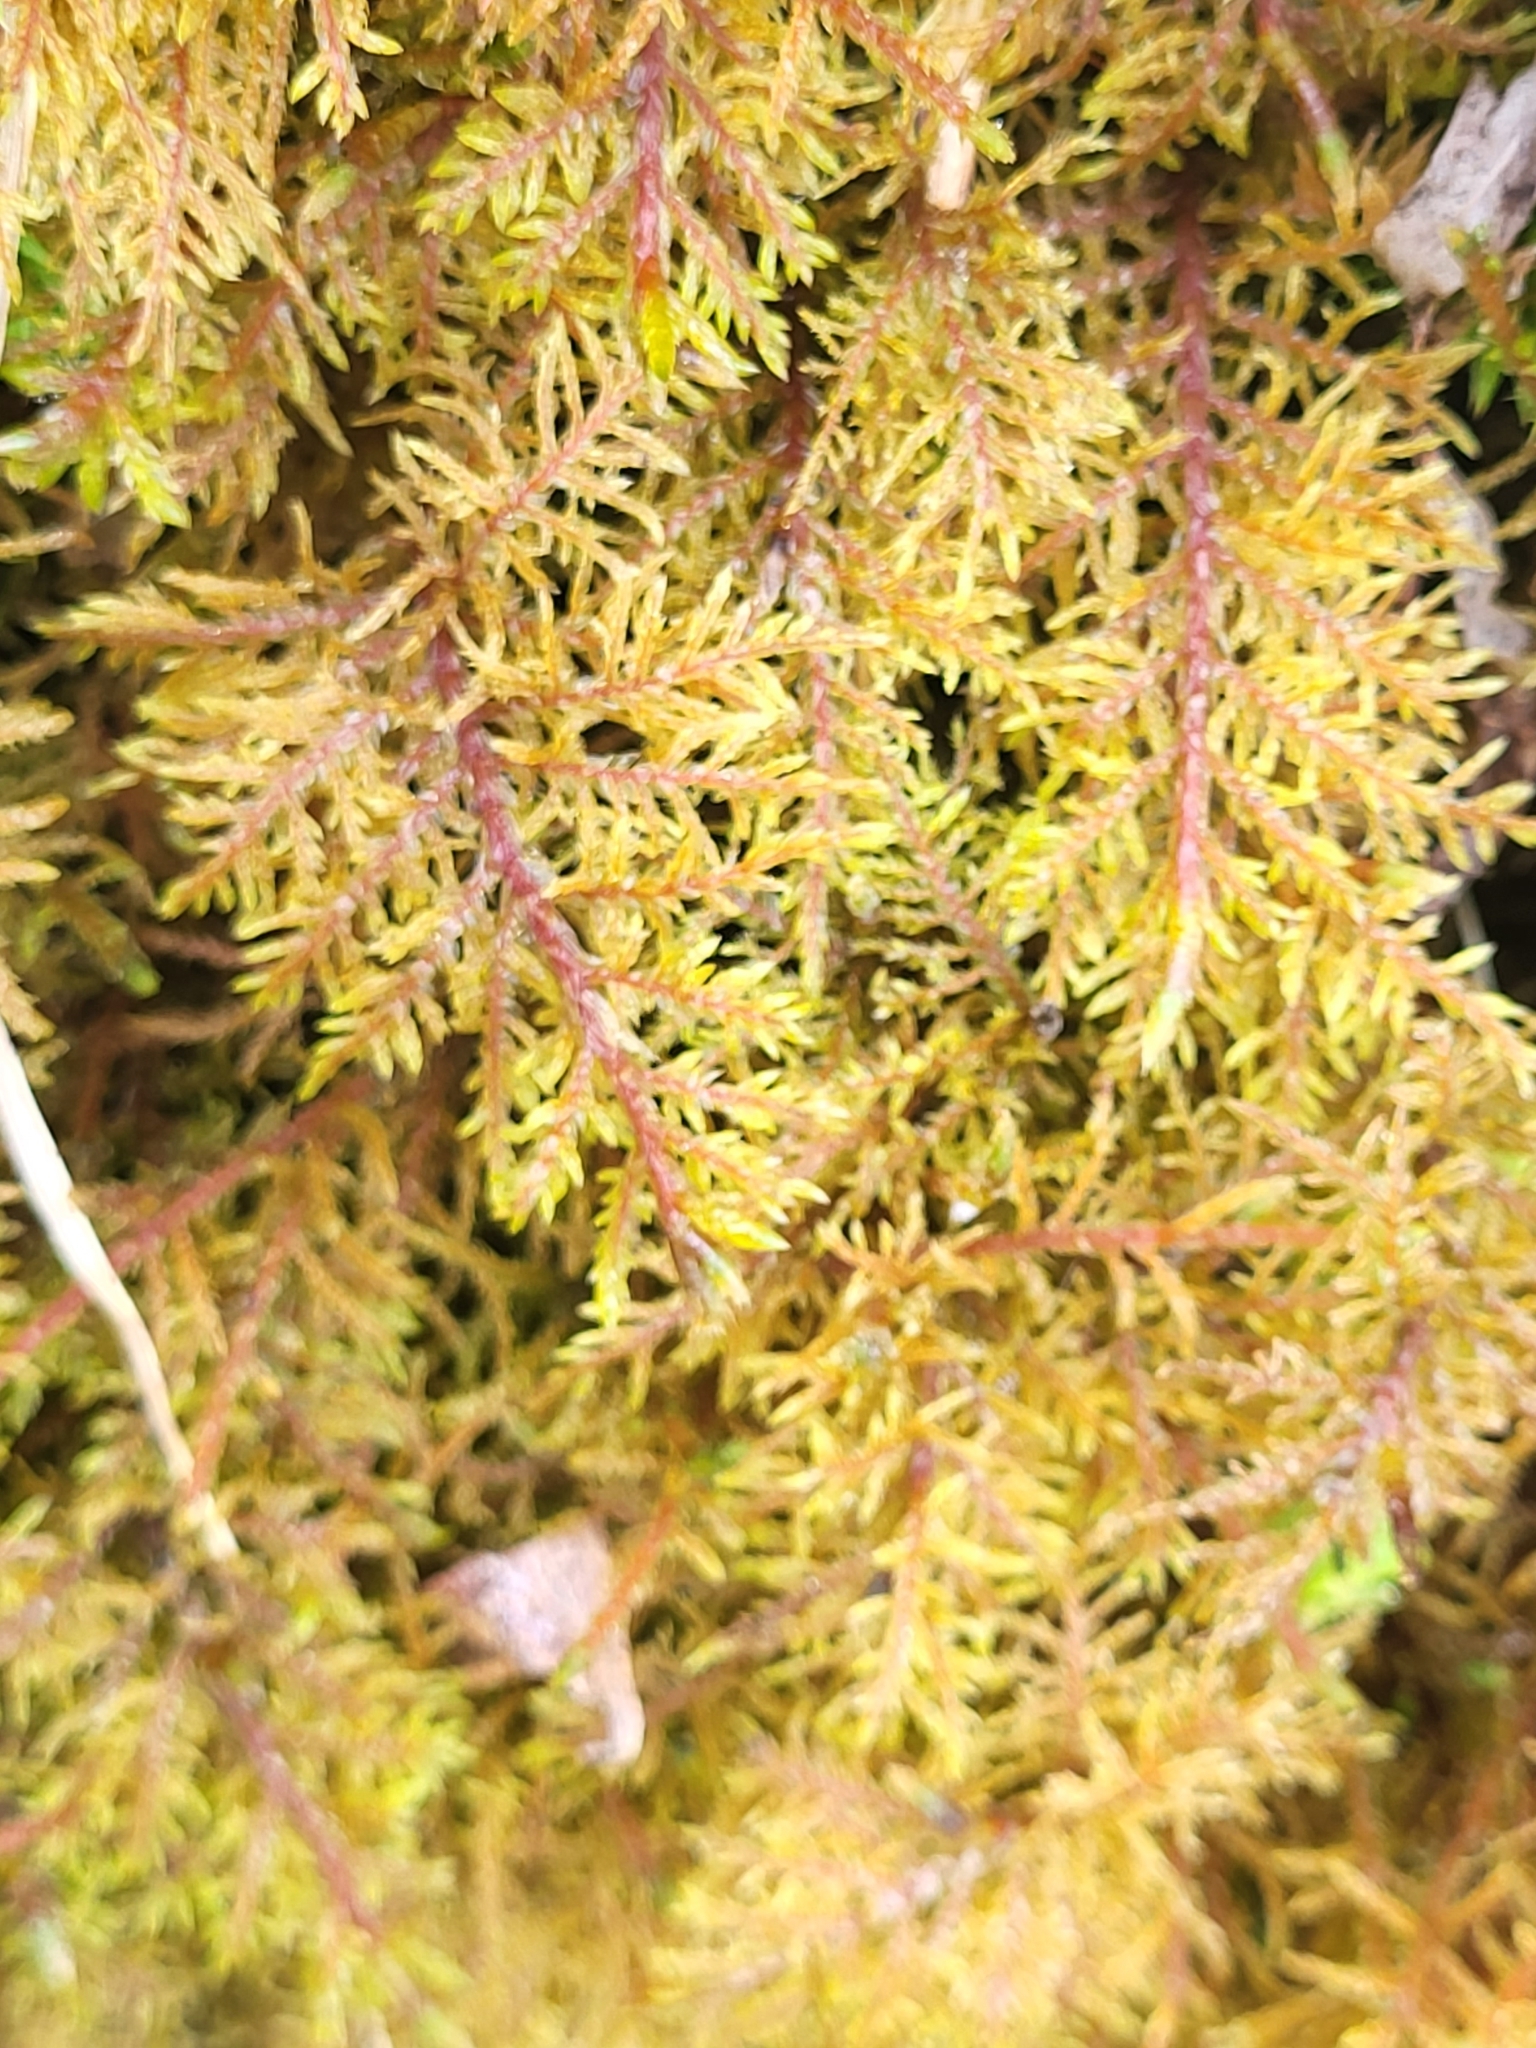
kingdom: Plantae
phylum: Bryophyta
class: Bryopsida
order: Hypnales
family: Hylocomiaceae
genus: Hylocomium
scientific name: Hylocomium splendens
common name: Stairstep moss
